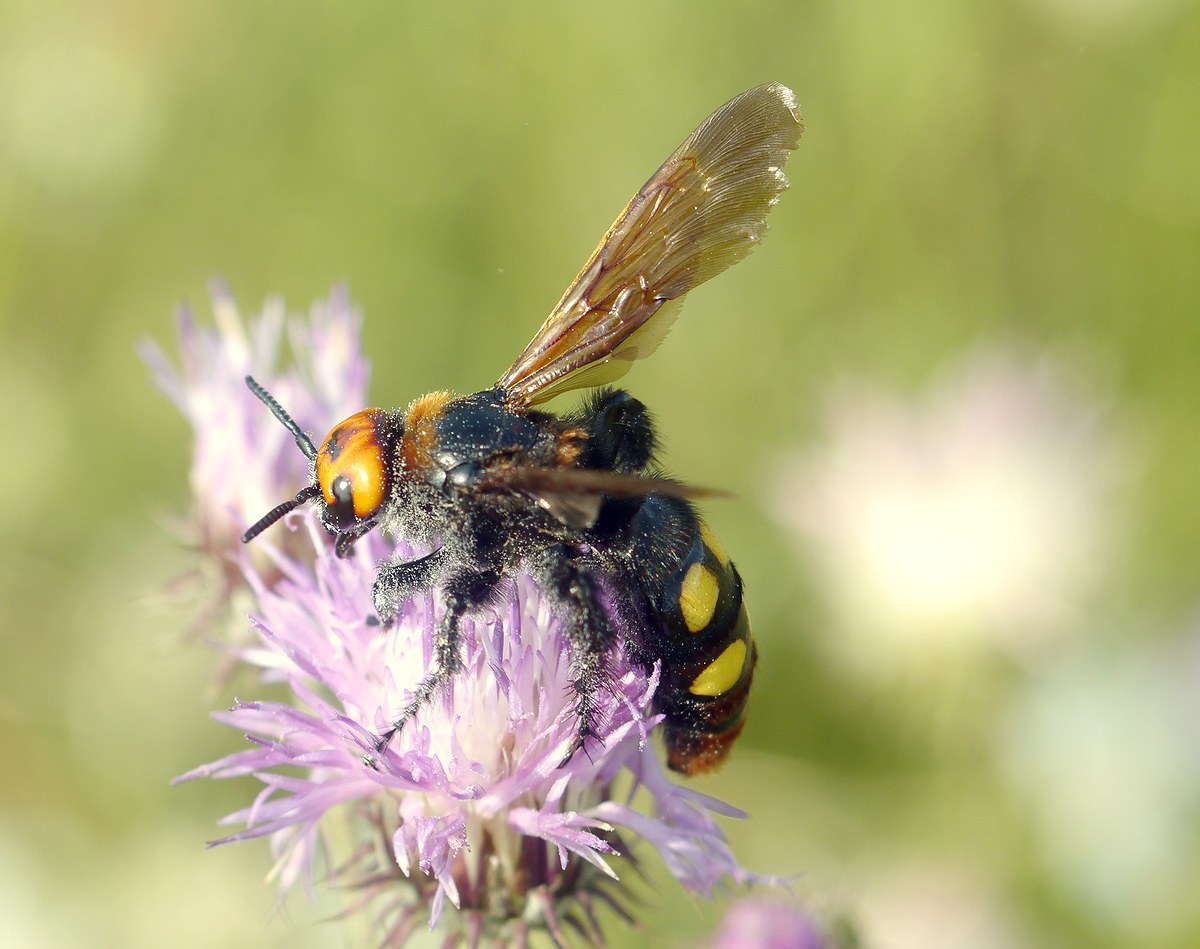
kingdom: Animalia
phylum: Arthropoda
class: Insecta
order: Hymenoptera
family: Scoliidae
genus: Megascolia
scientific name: Megascolia maculata
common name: Mammoth wasp
